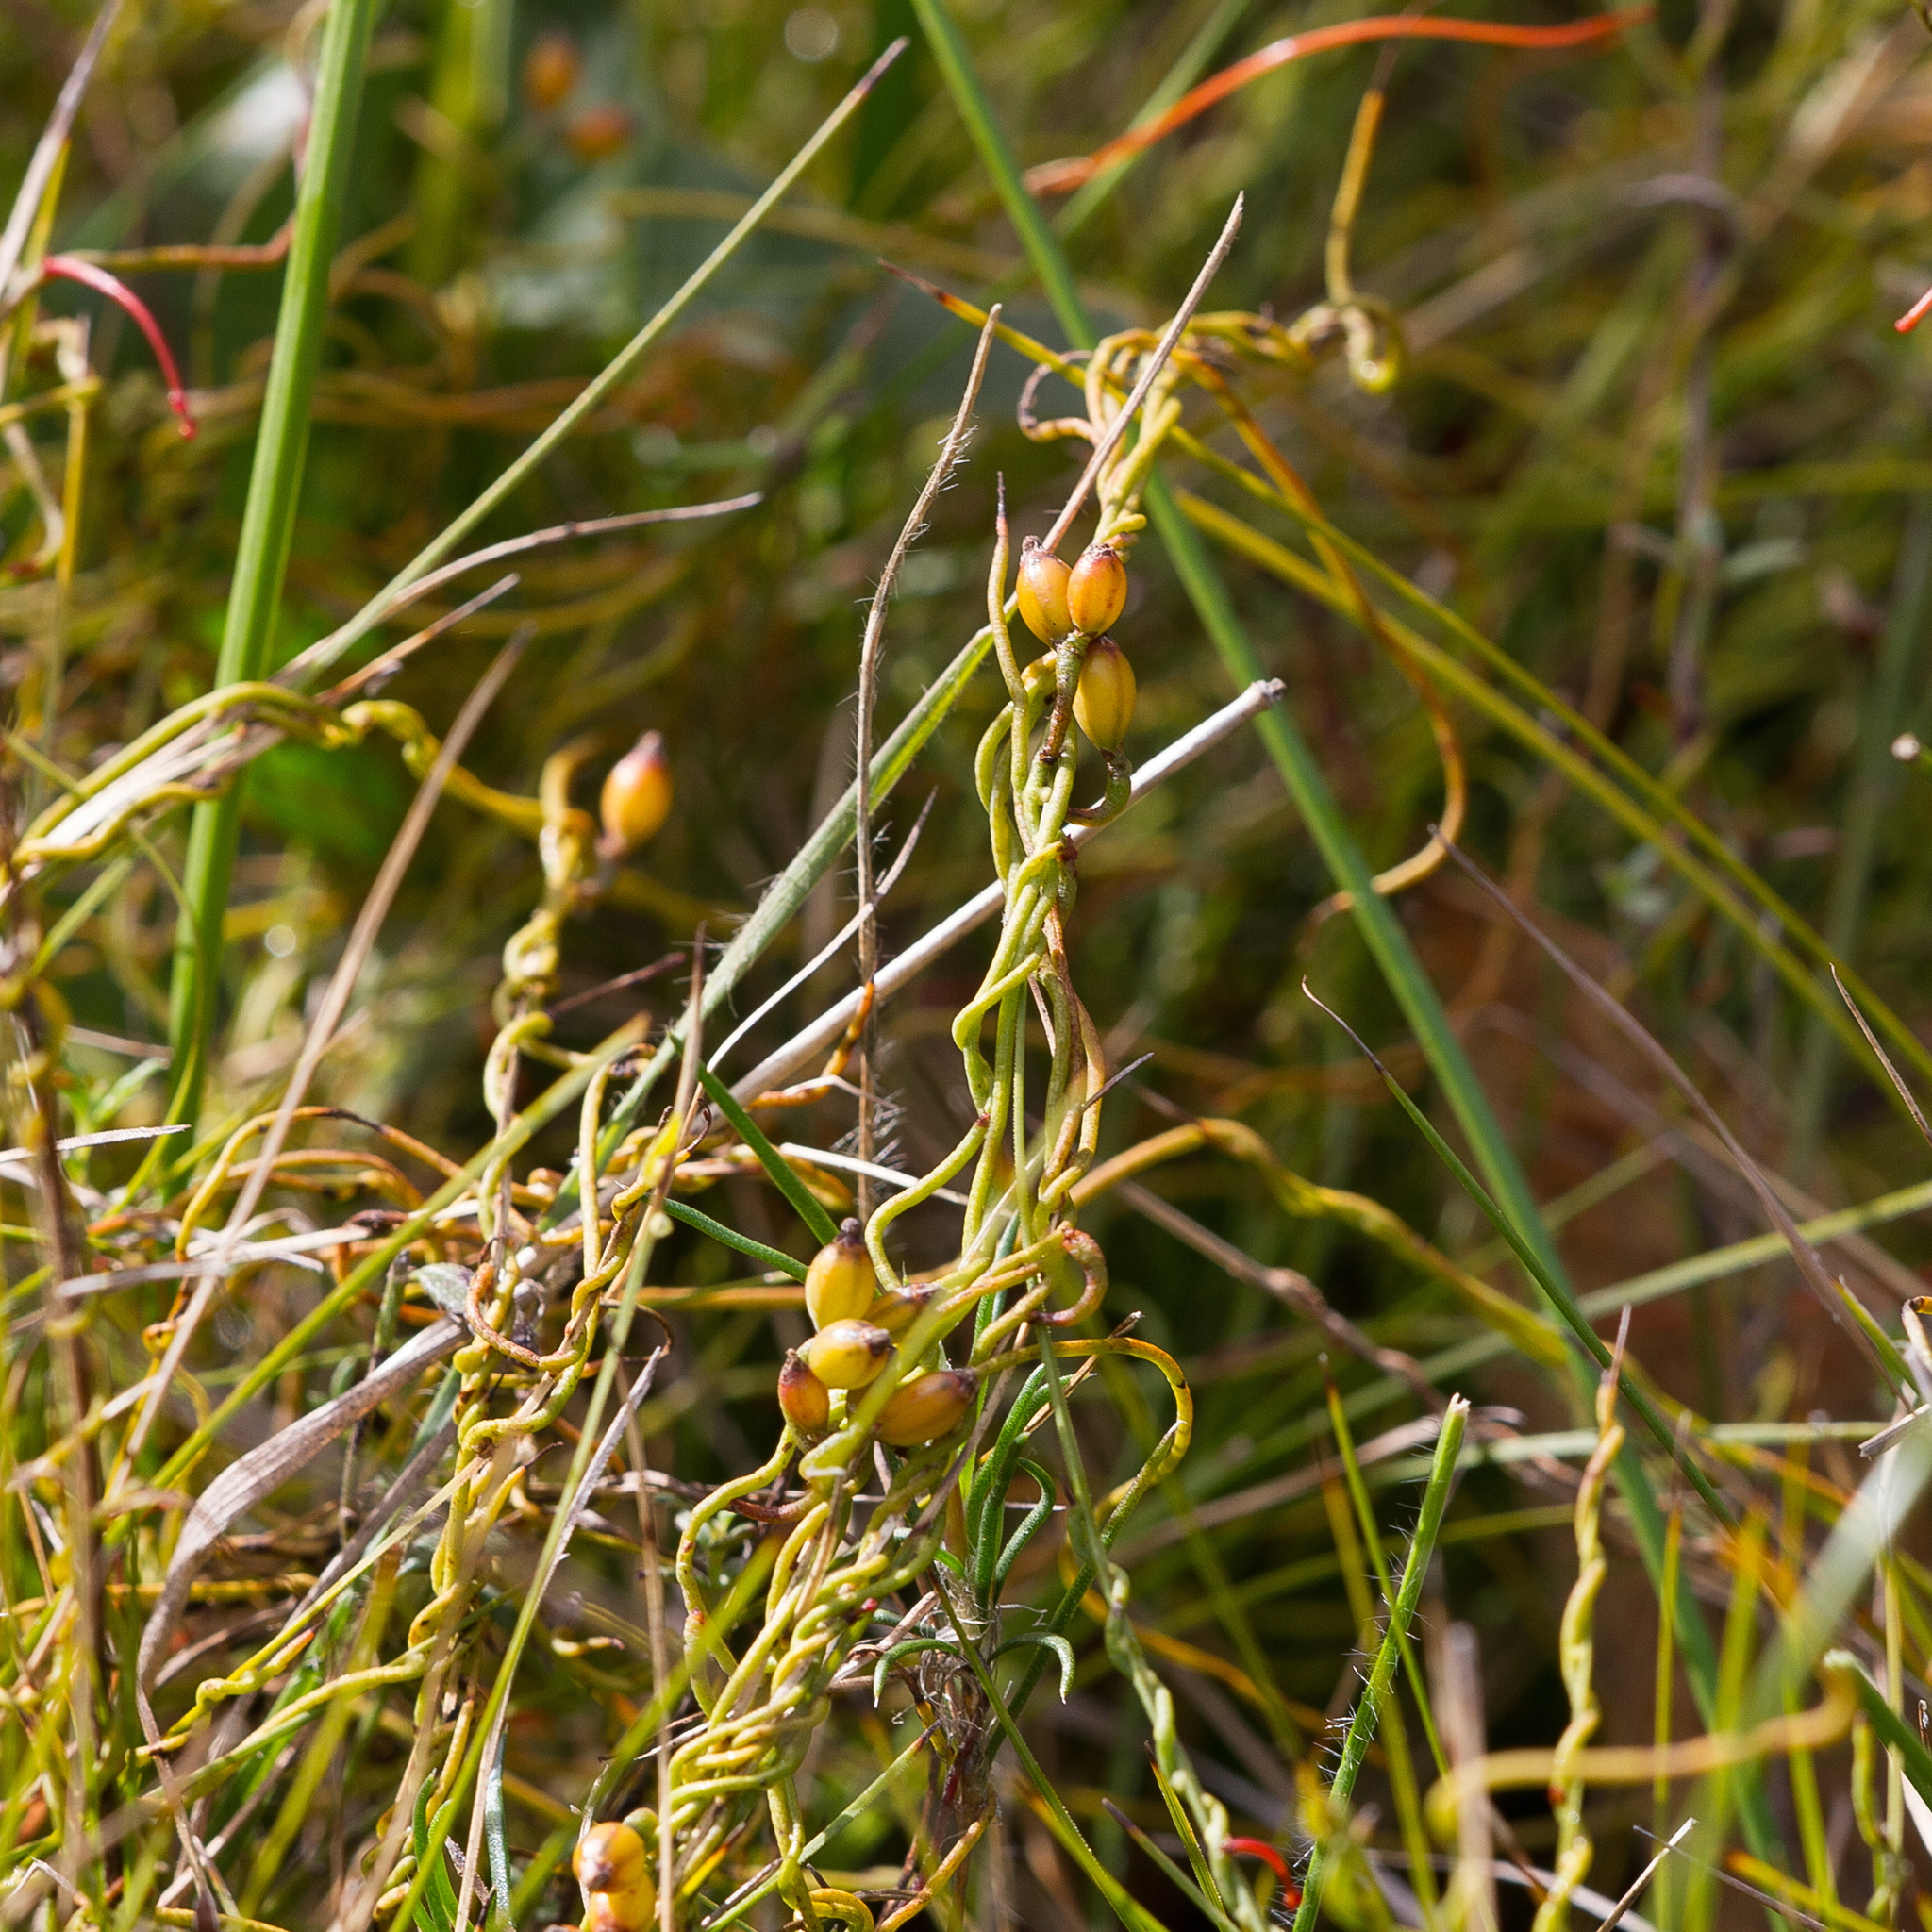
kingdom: Plantae
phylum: Tracheophyta
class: Magnoliopsida
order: Laurales
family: Lauraceae
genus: Cassytha
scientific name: Cassytha glabella
